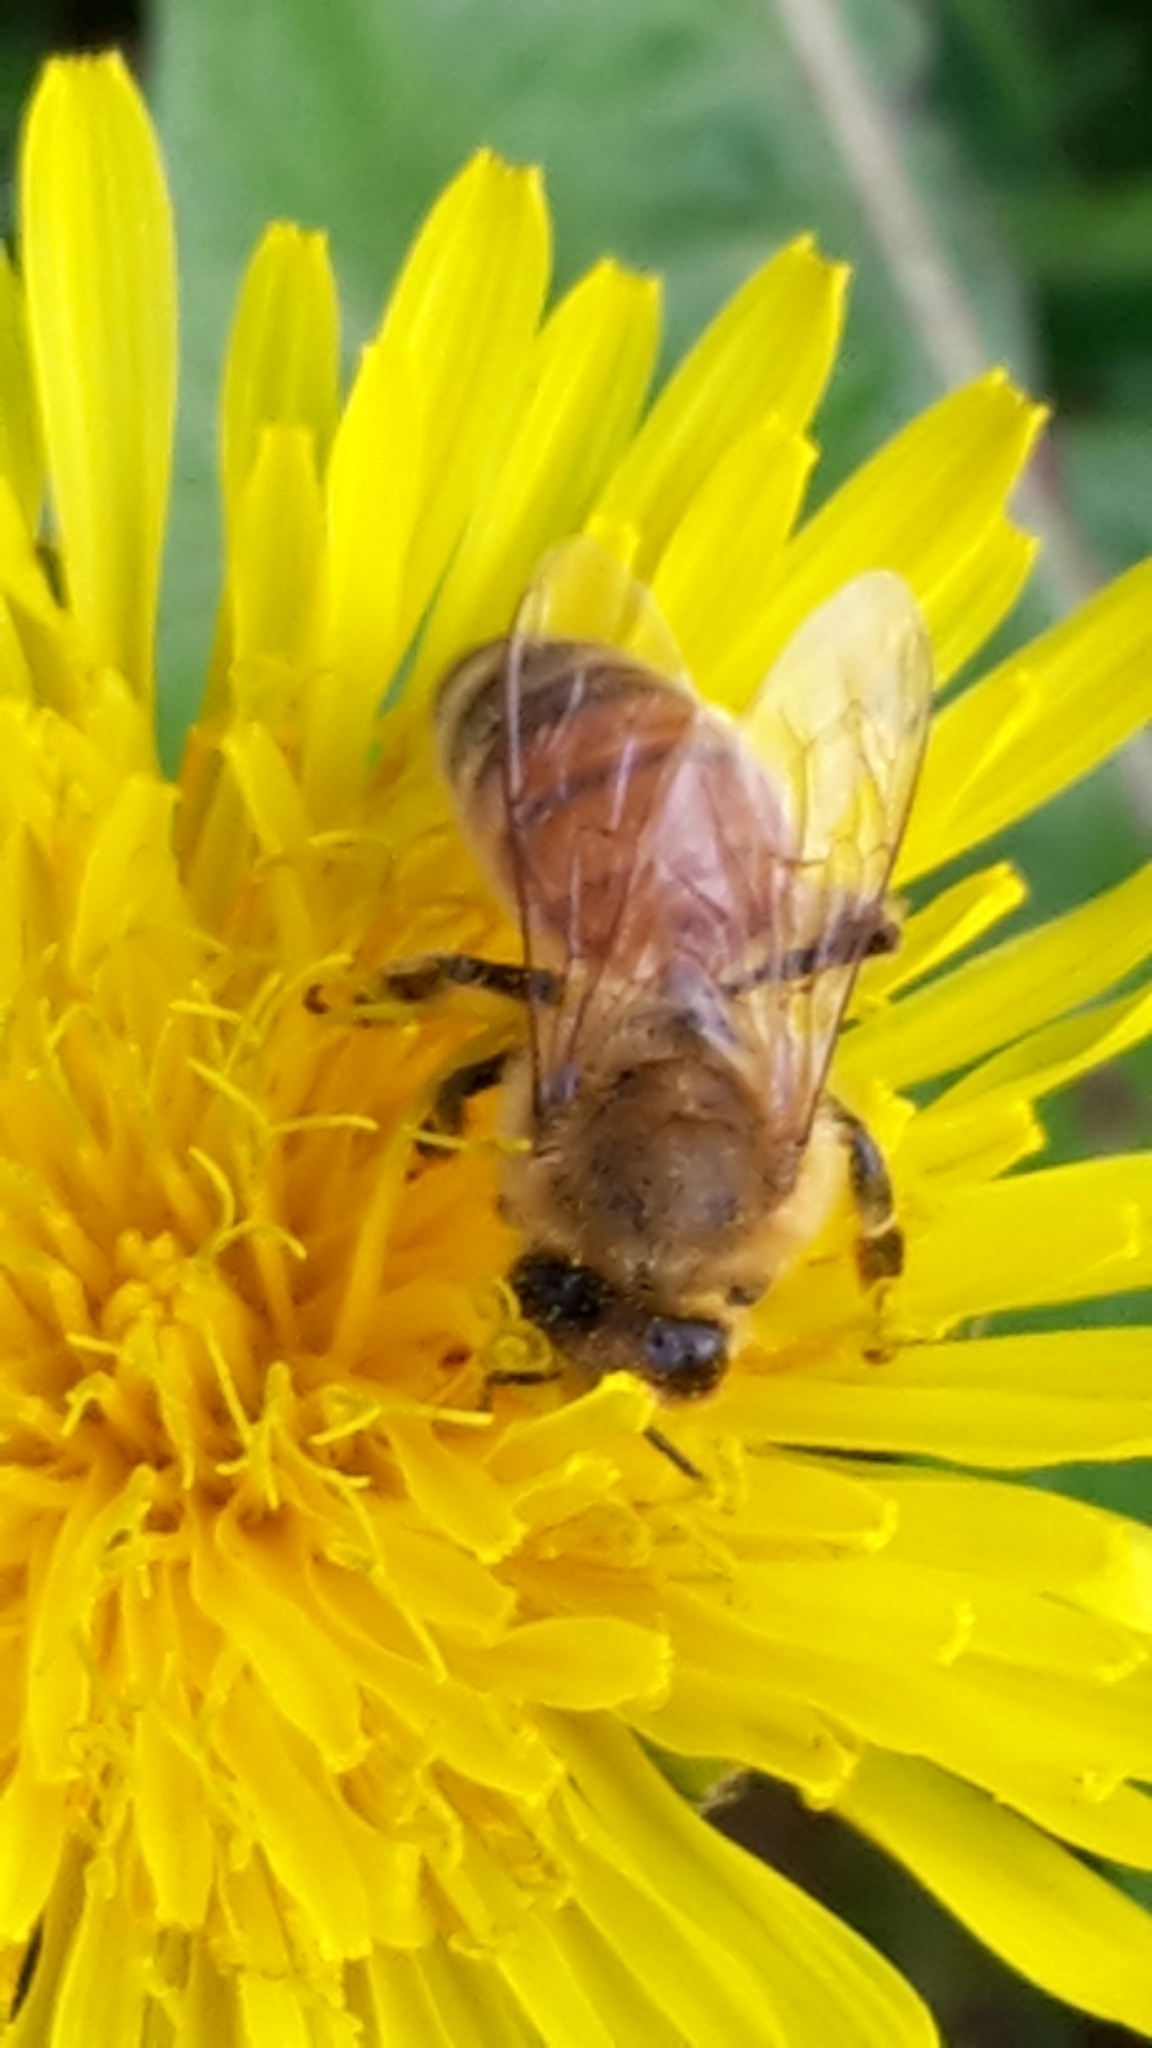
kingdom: Animalia
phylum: Arthropoda
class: Insecta
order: Hymenoptera
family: Apidae
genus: Apis
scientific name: Apis mellifera
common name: Honey bee
